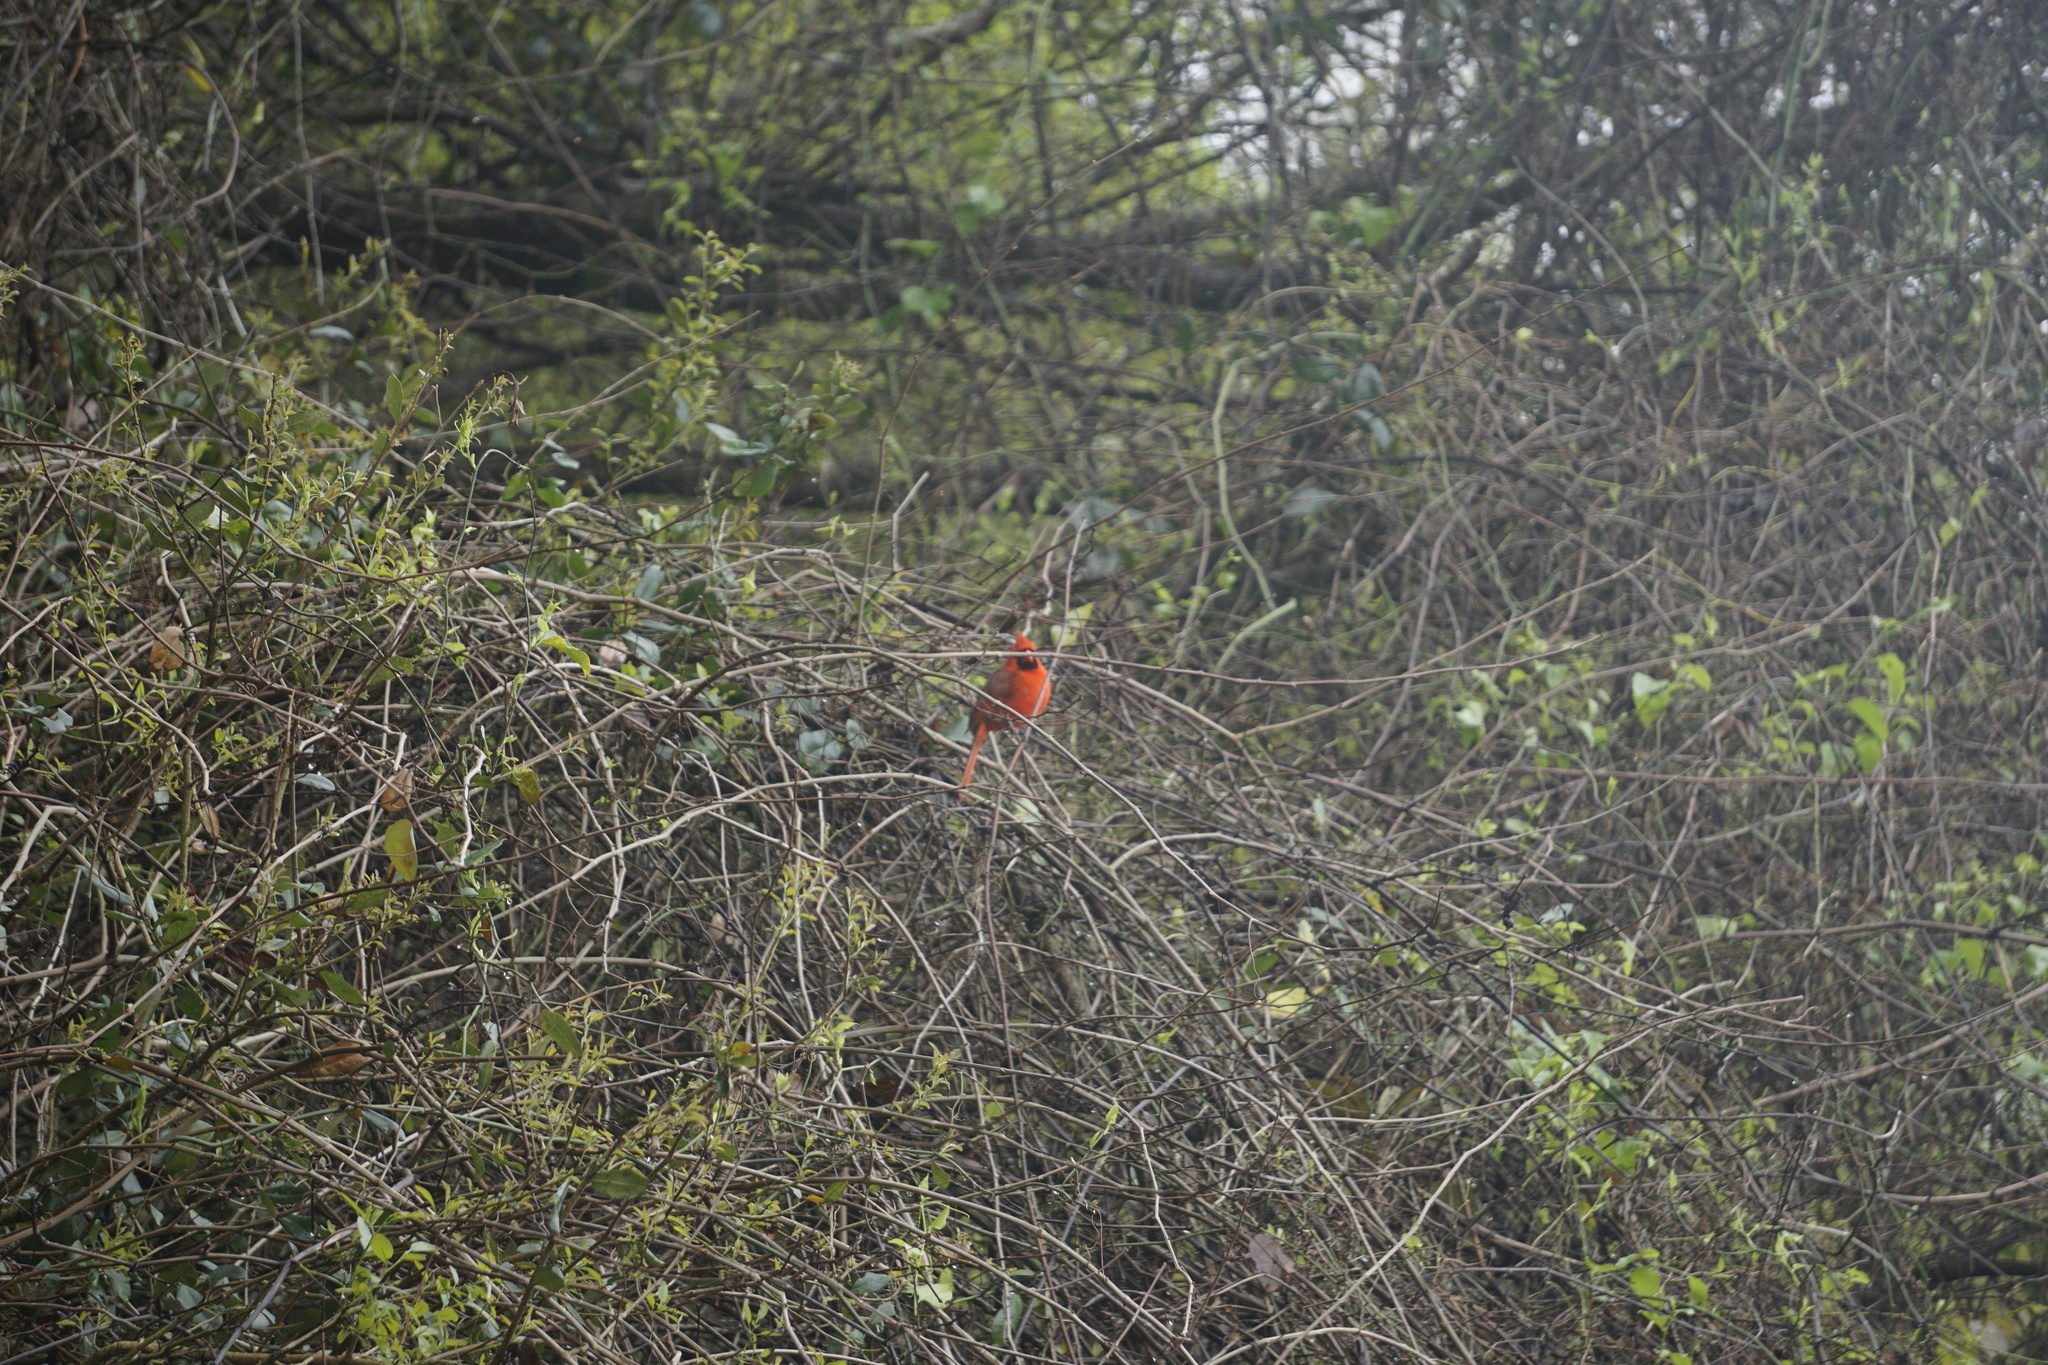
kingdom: Animalia
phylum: Chordata
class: Aves
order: Passeriformes
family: Cardinalidae
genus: Cardinalis
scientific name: Cardinalis cardinalis
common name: Northern cardinal
